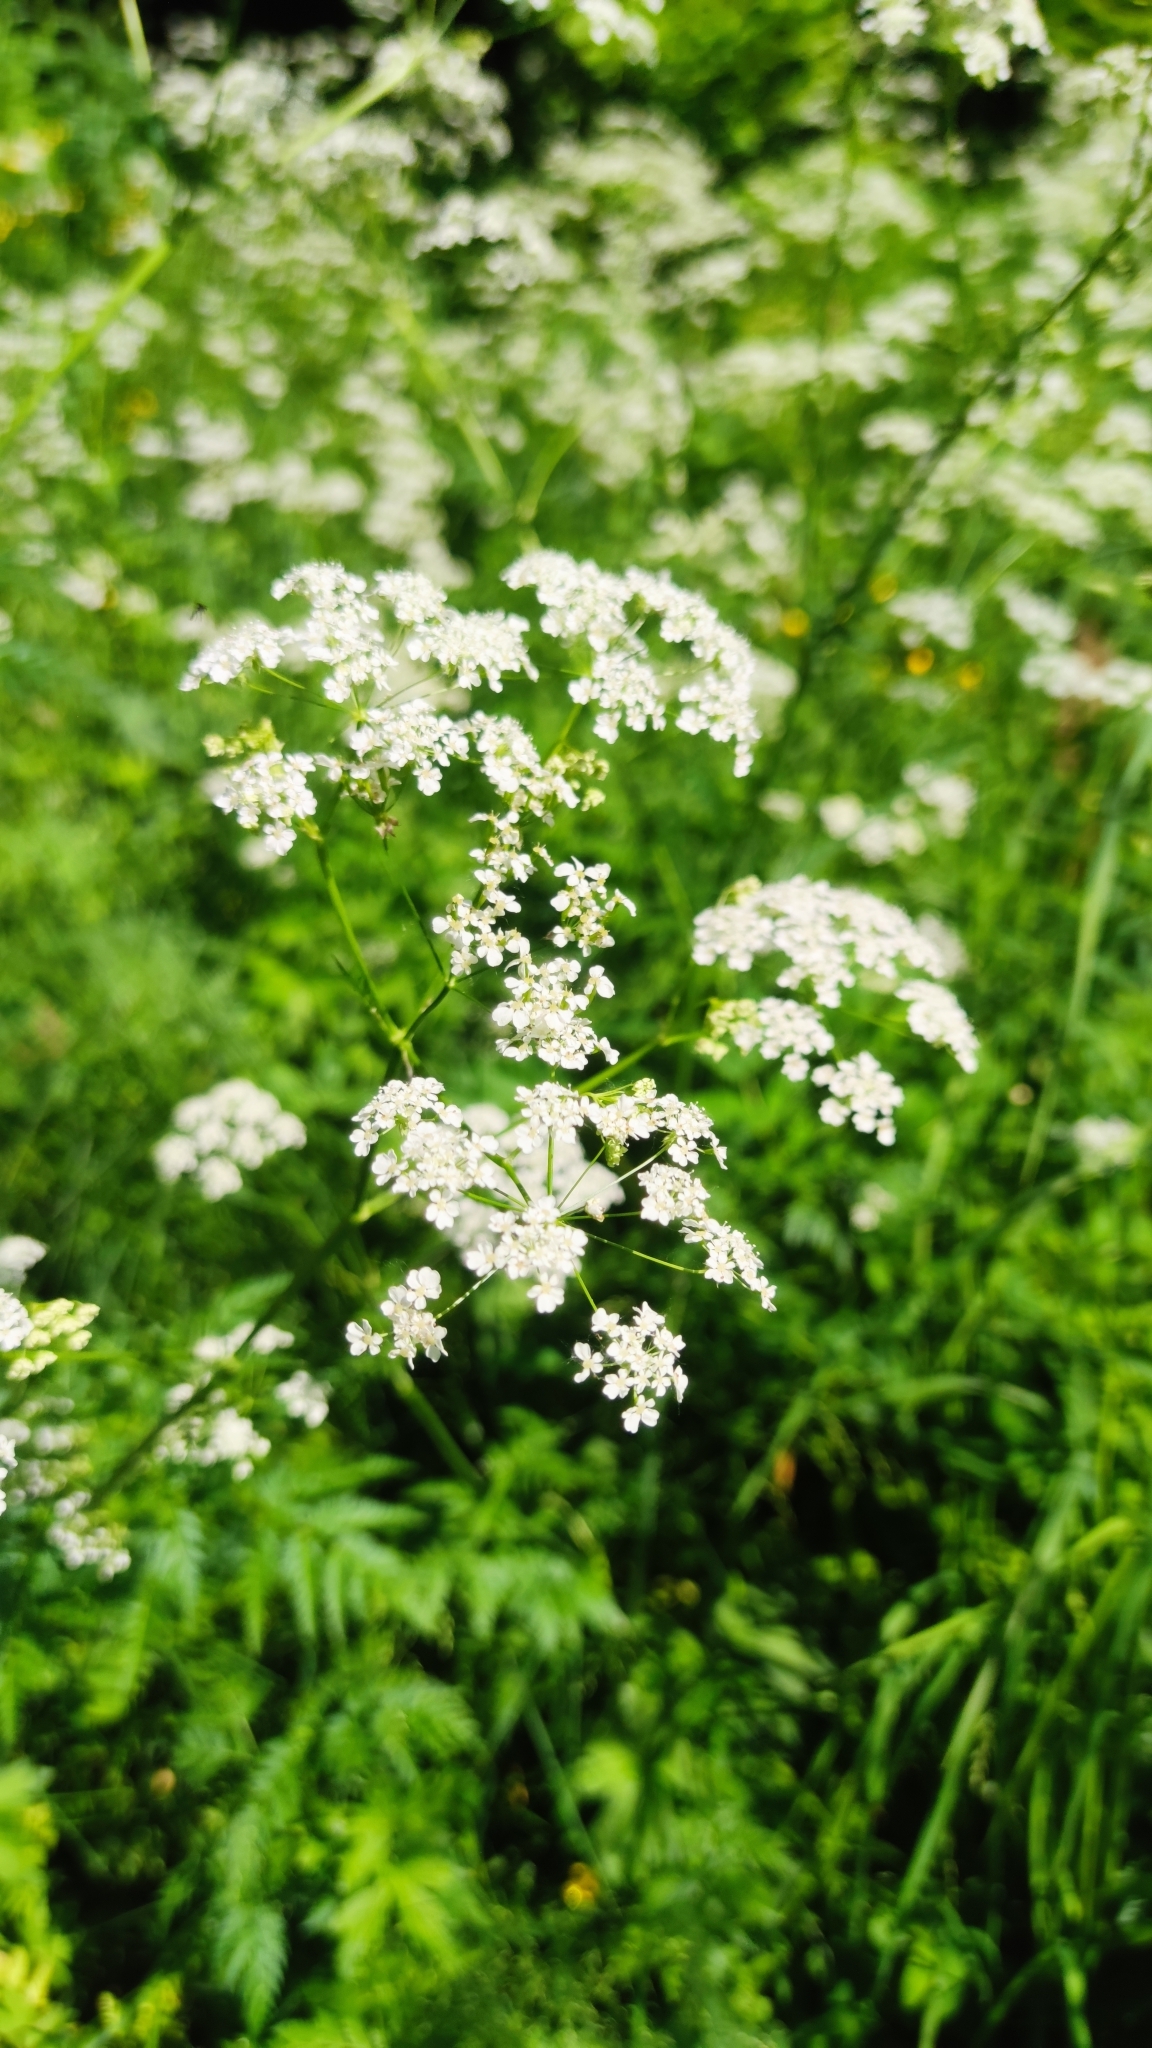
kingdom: Plantae
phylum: Tracheophyta
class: Magnoliopsida
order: Apiales
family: Apiaceae
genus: Anthriscus
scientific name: Anthriscus sylvestris
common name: Cow parsley
